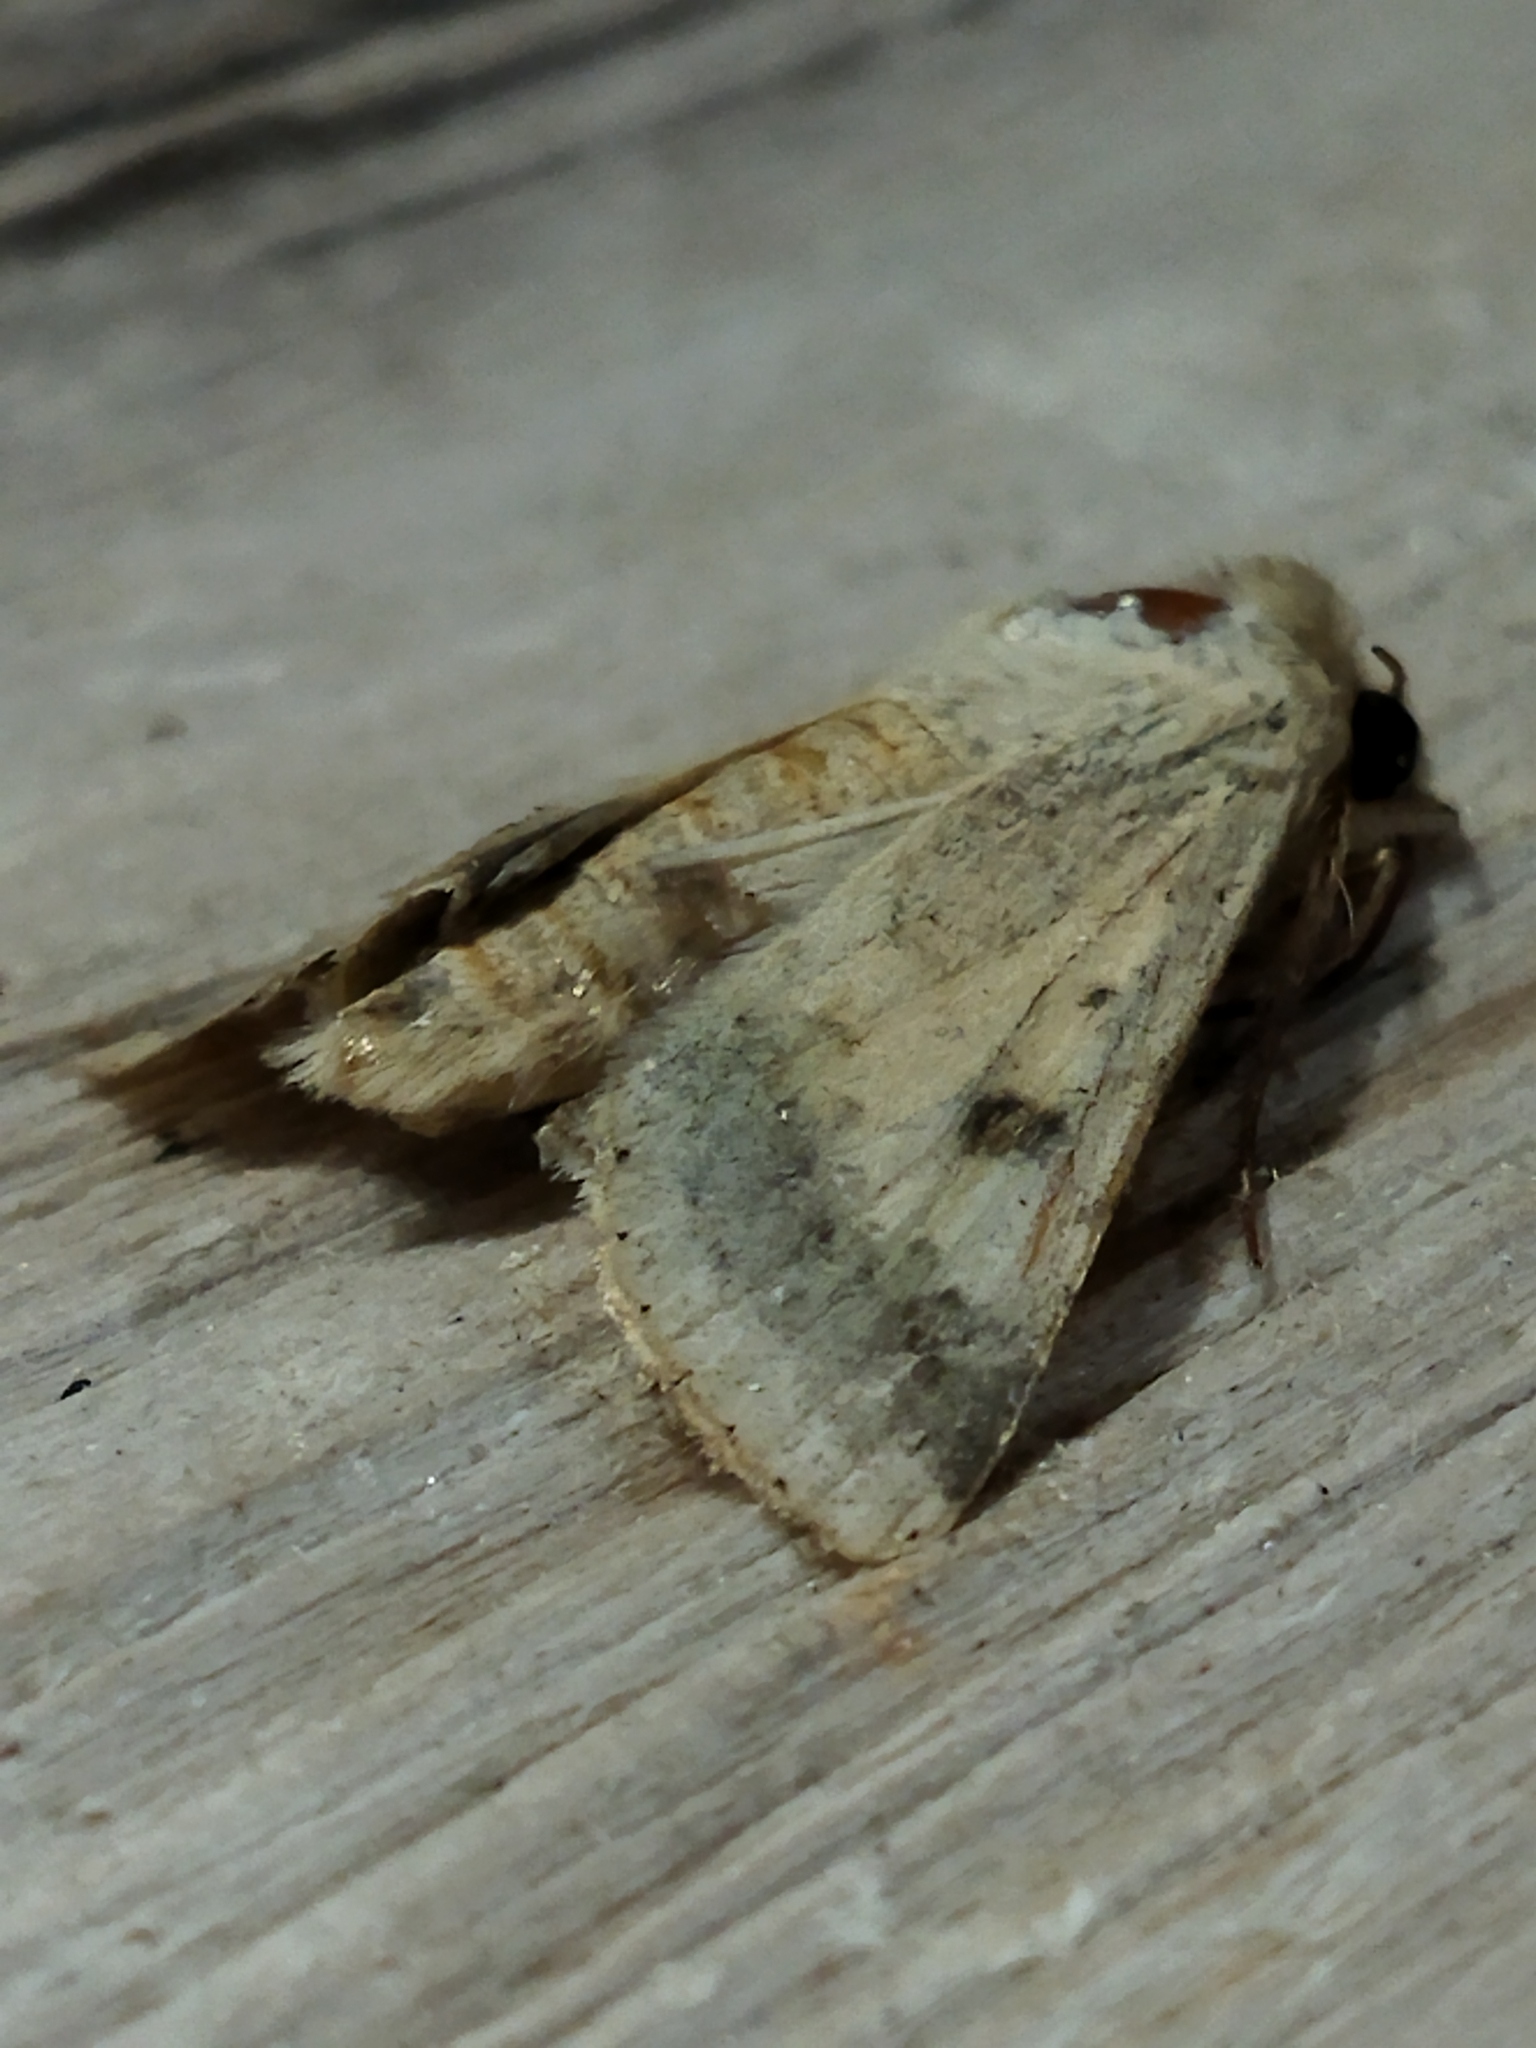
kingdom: Animalia
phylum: Arthropoda
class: Insecta
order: Lepidoptera
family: Noctuidae
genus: Helicoverpa
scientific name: Helicoverpa armigera
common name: Cotton bollworm
